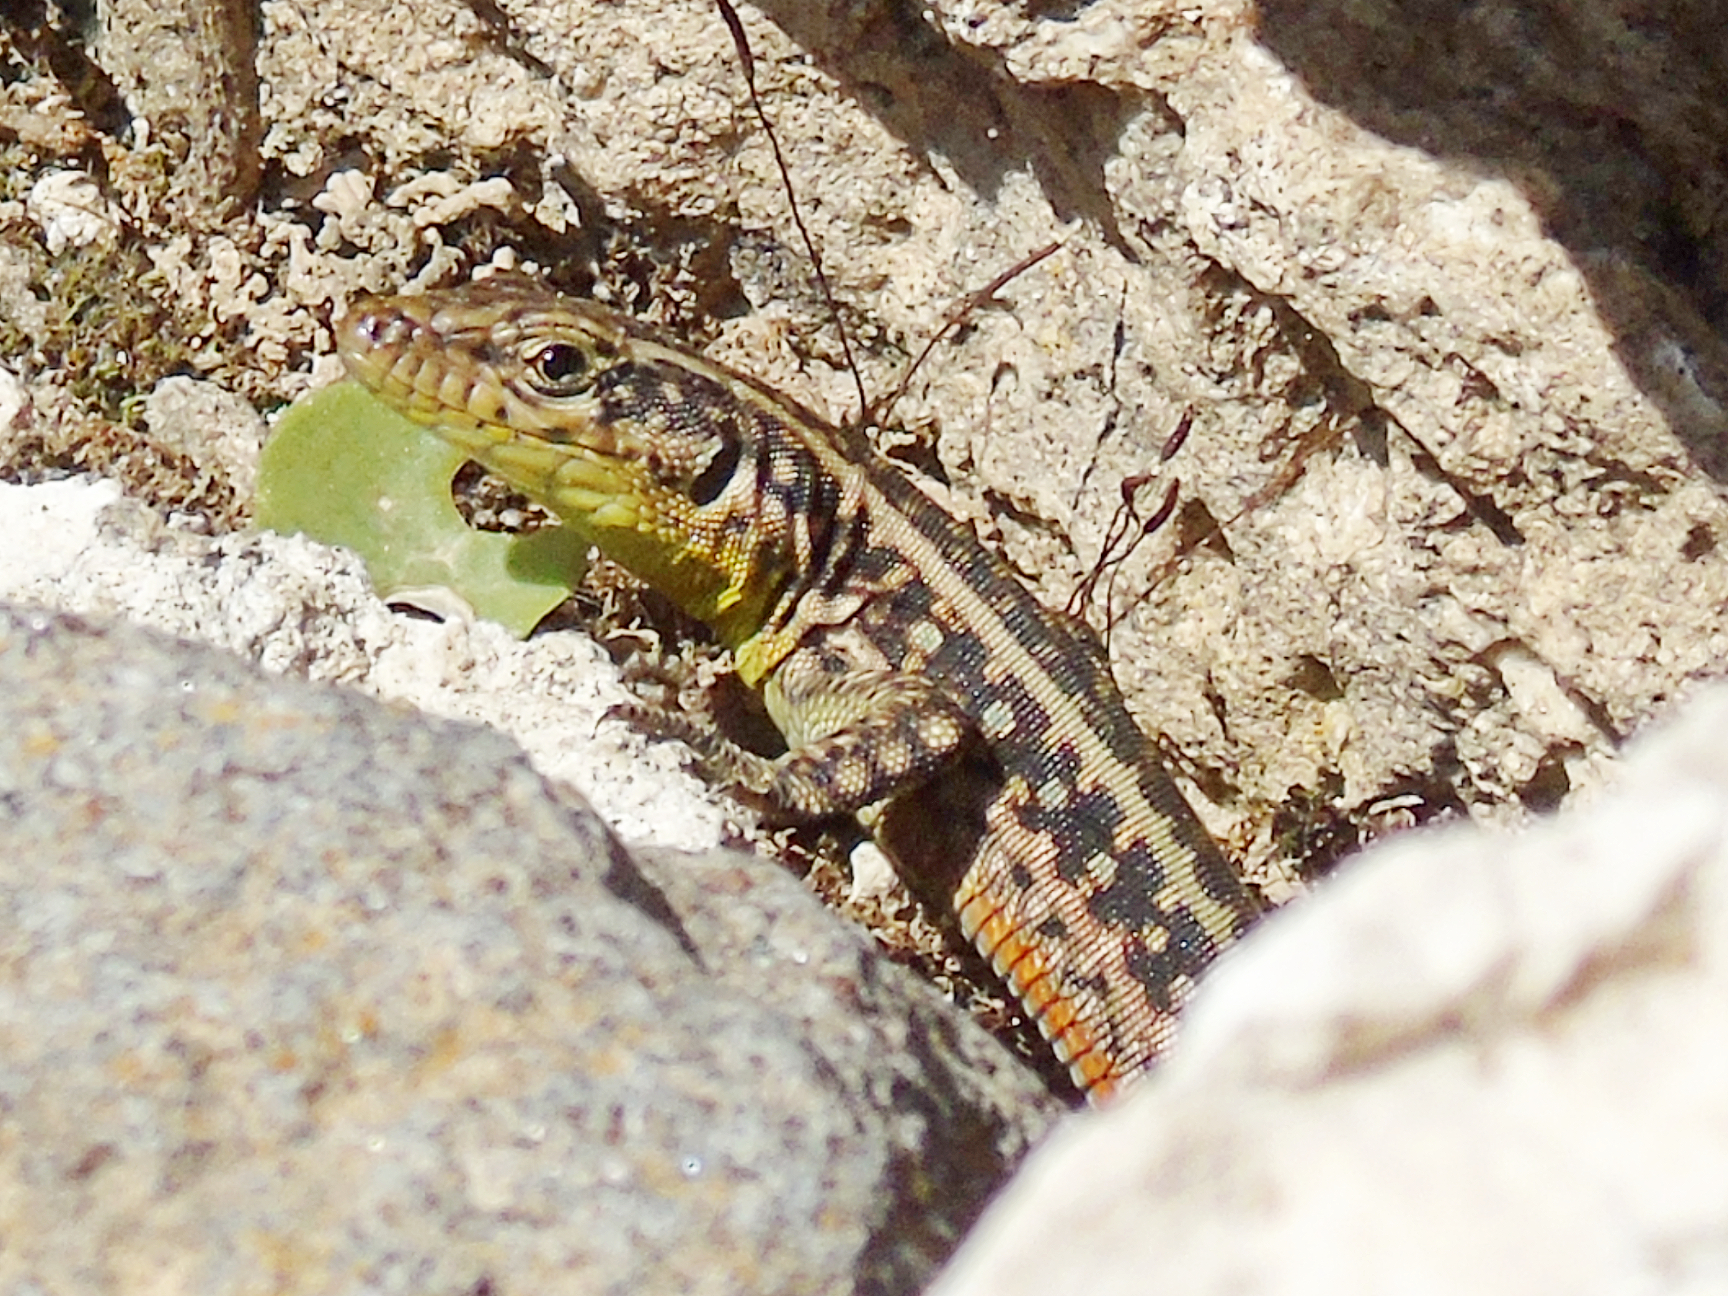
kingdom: Animalia
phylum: Chordata
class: Squamata
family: Lacertidae
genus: Apathya
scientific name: Apathya cappadocica
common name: Anatolian lizard
